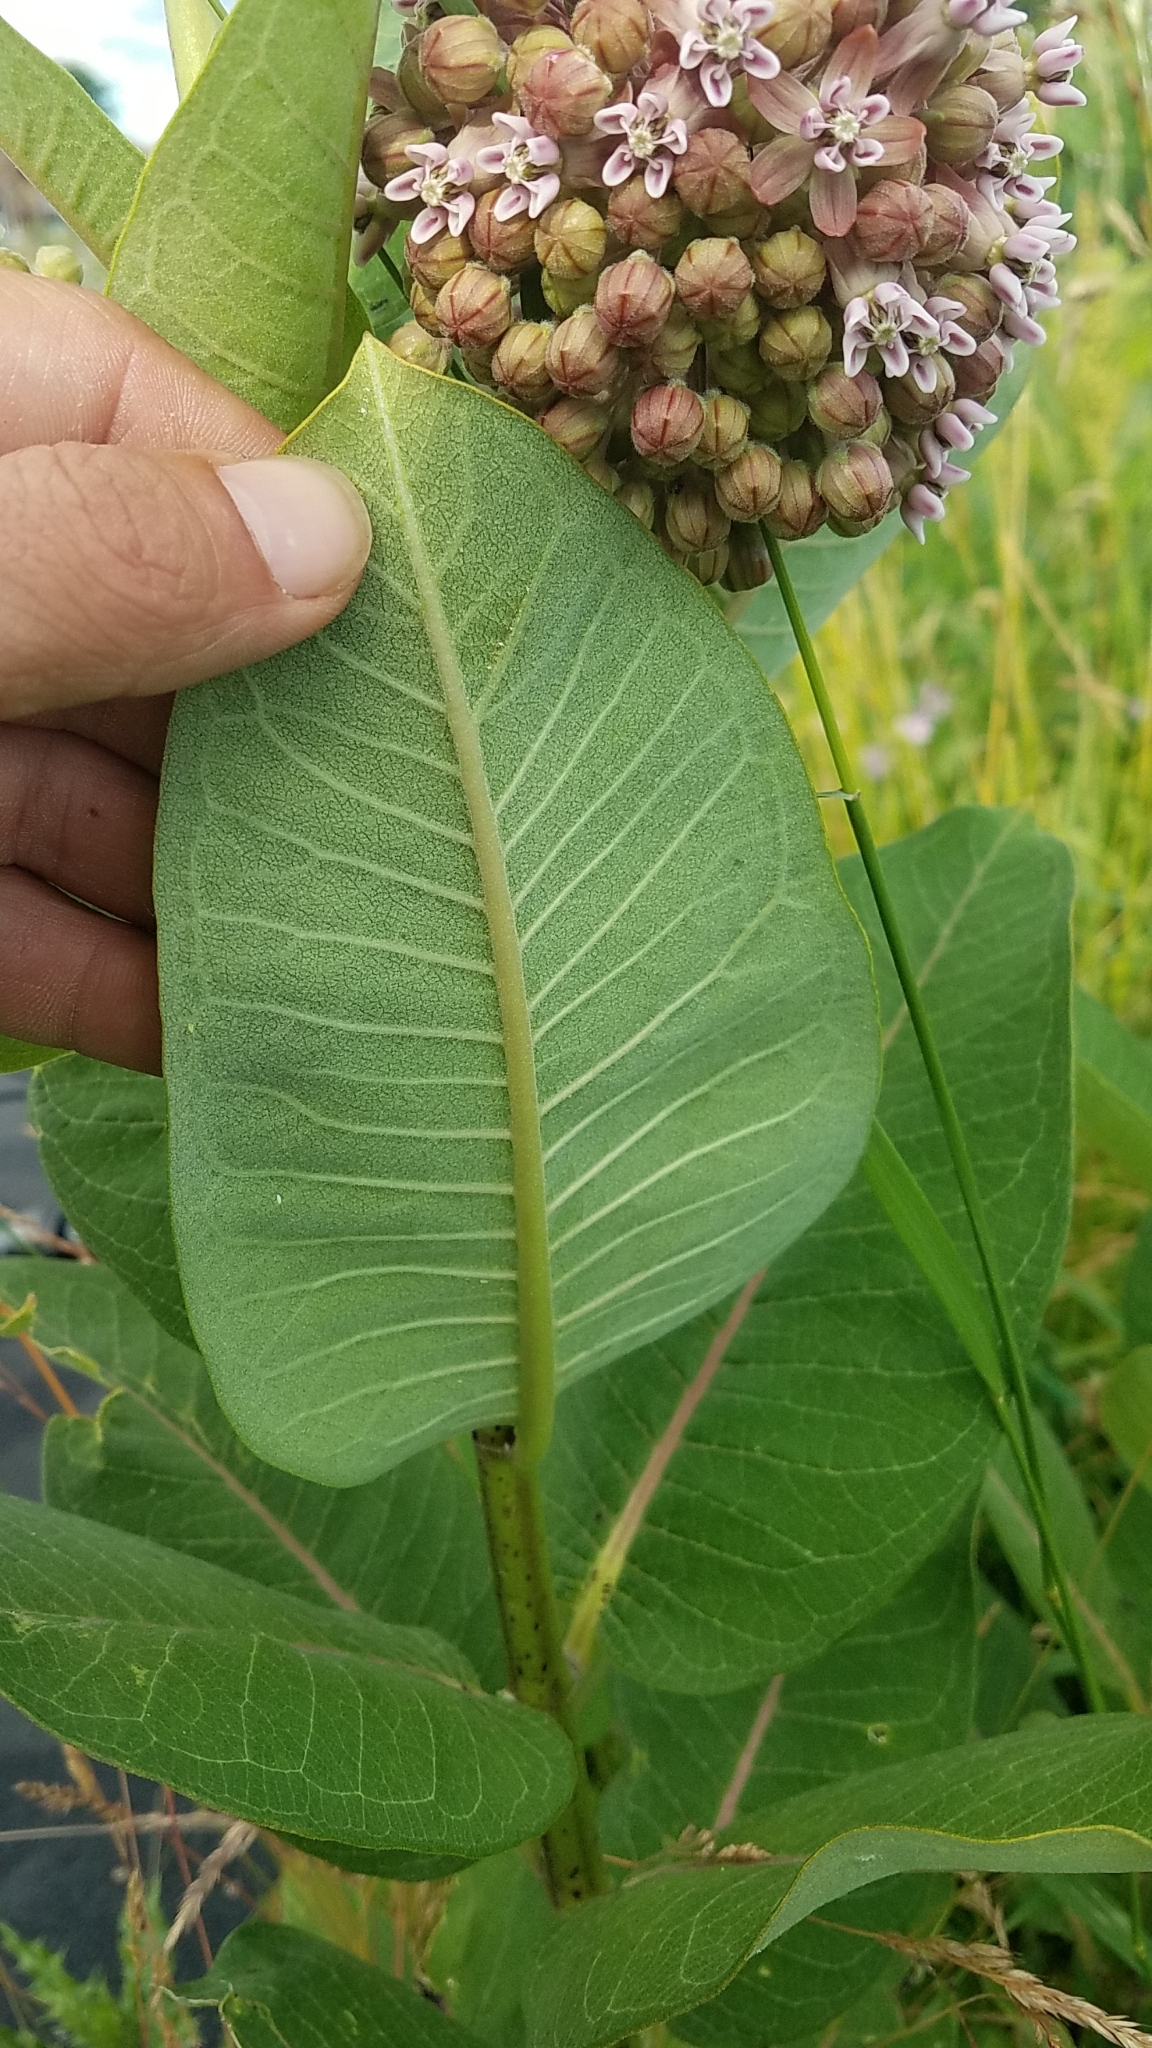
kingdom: Plantae
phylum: Tracheophyta
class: Magnoliopsida
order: Gentianales
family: Apocynaceae
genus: Asclepias
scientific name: Asclepias syriaca
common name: Common milkweed
